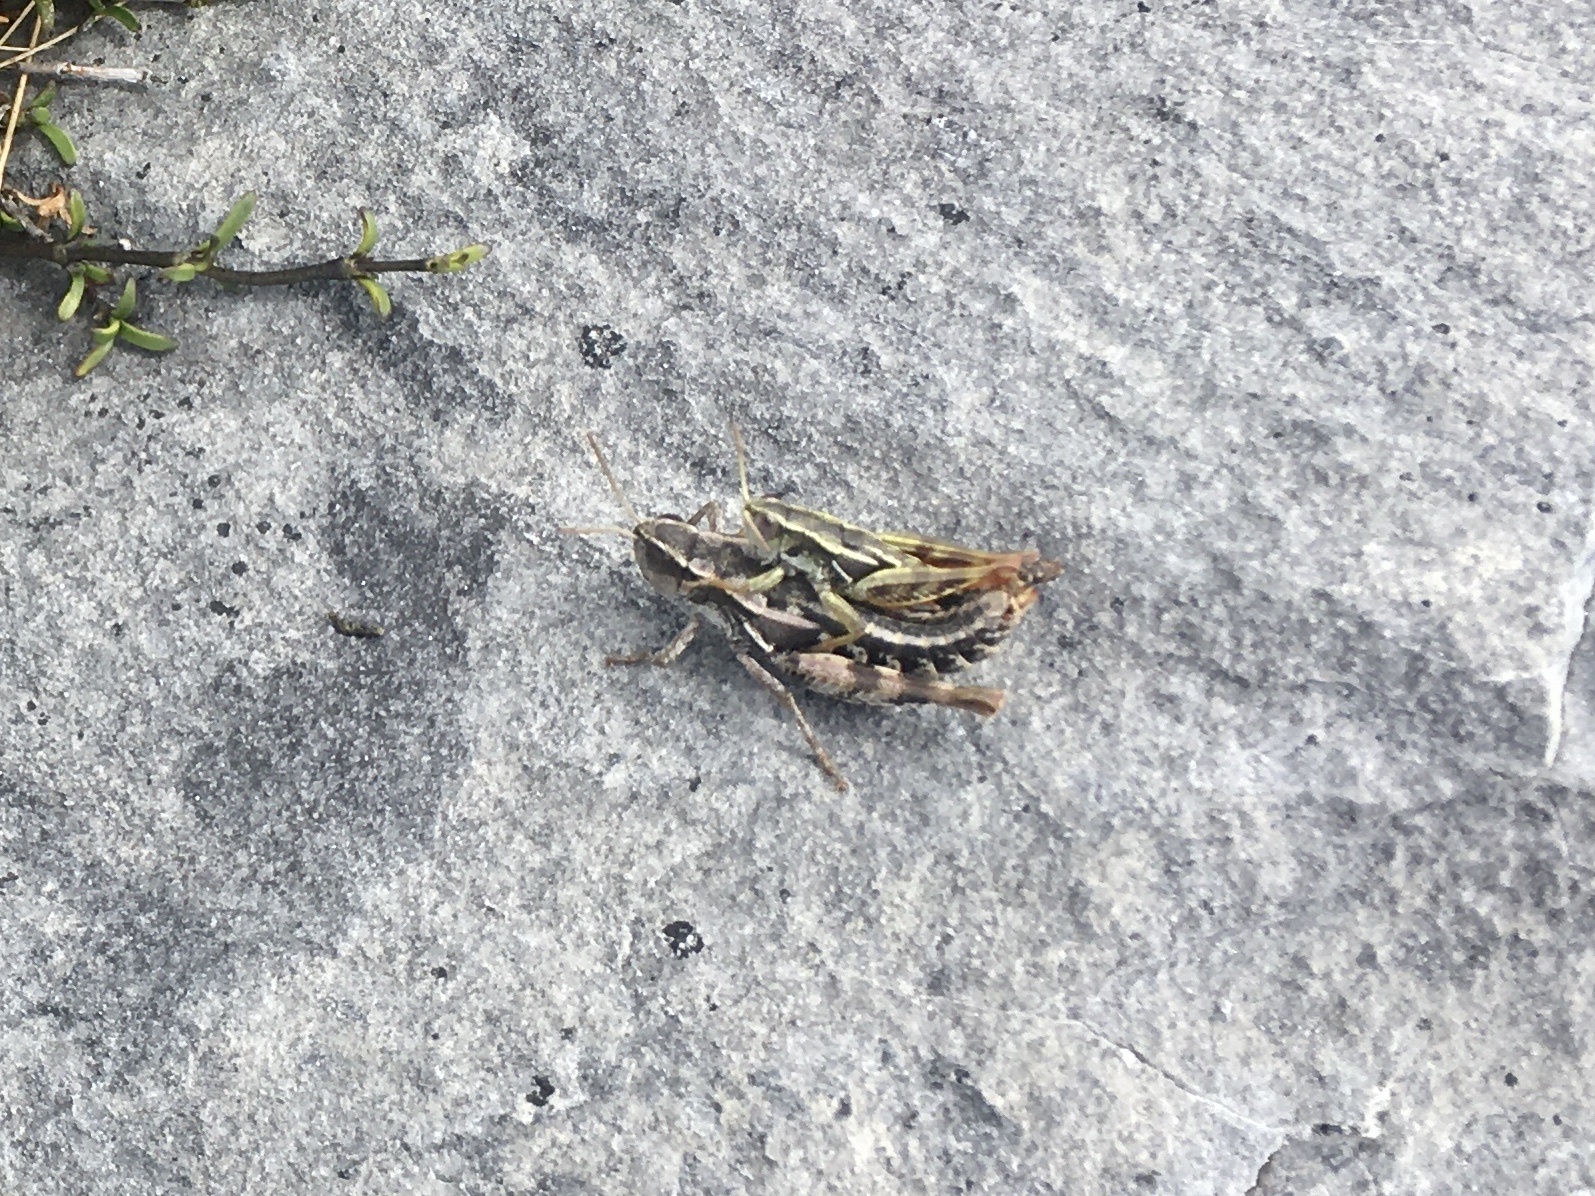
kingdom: Animalia
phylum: Arthropoda
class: Insecta
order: Orthoptera
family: Acrididae
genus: Sigaus
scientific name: Sigaus
